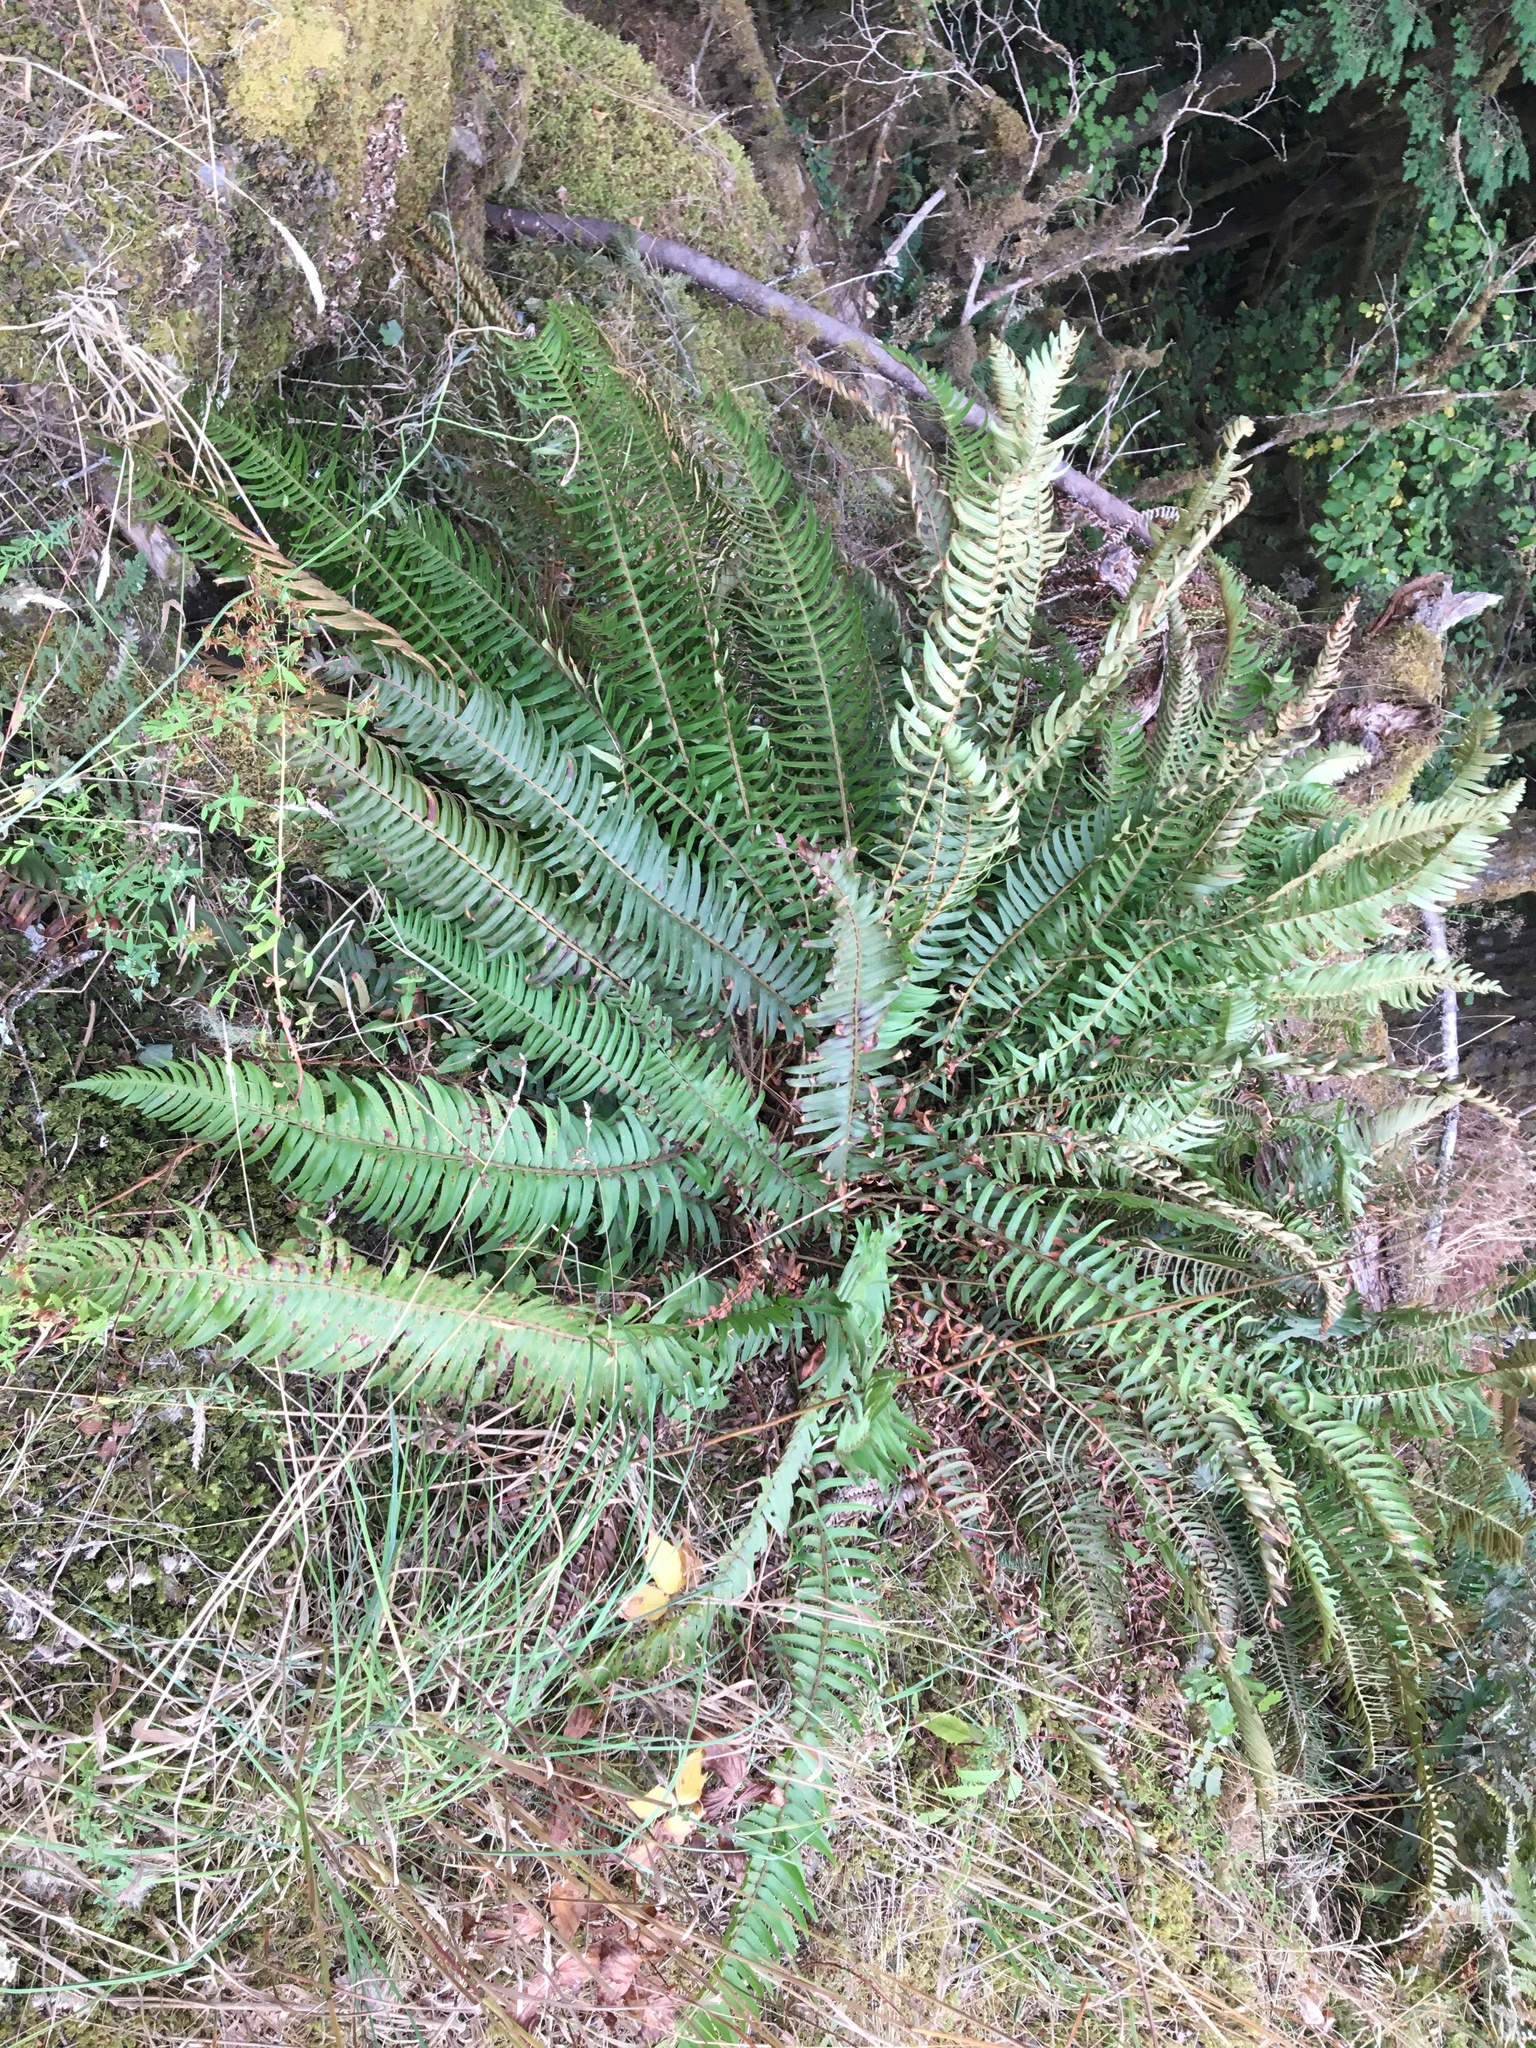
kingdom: Plantae
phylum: Tracheophyta
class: Polypodiopsida
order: Polypodiales
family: Dryopteridaceae
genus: Polystichum
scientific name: Polystichum munitum
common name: Western sword-fern
